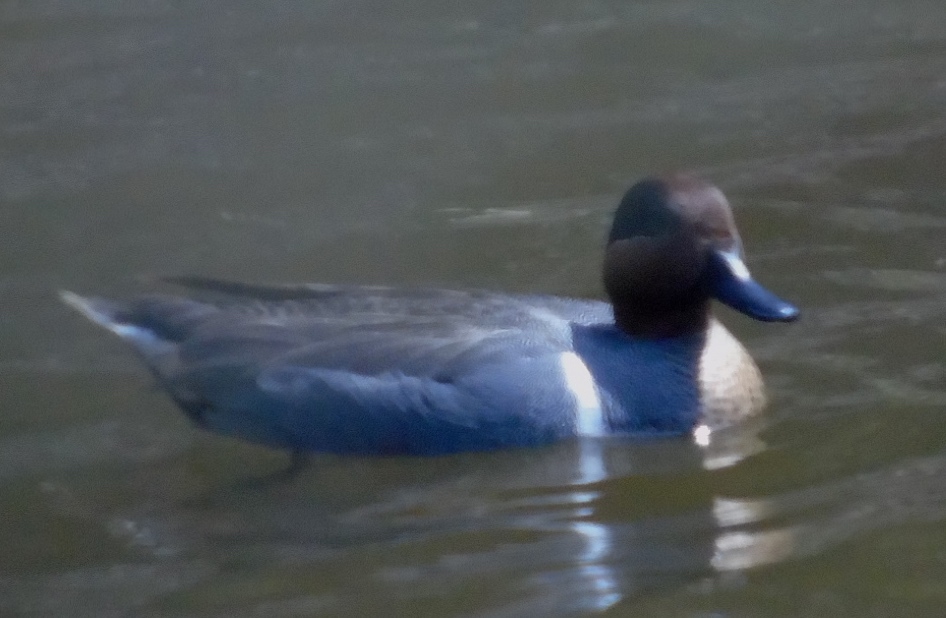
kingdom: Animalia
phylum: Chordata
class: Aves
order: Anseriformes
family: Anatidae
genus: Anas
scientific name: Anas crecca
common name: Eurasian teal
